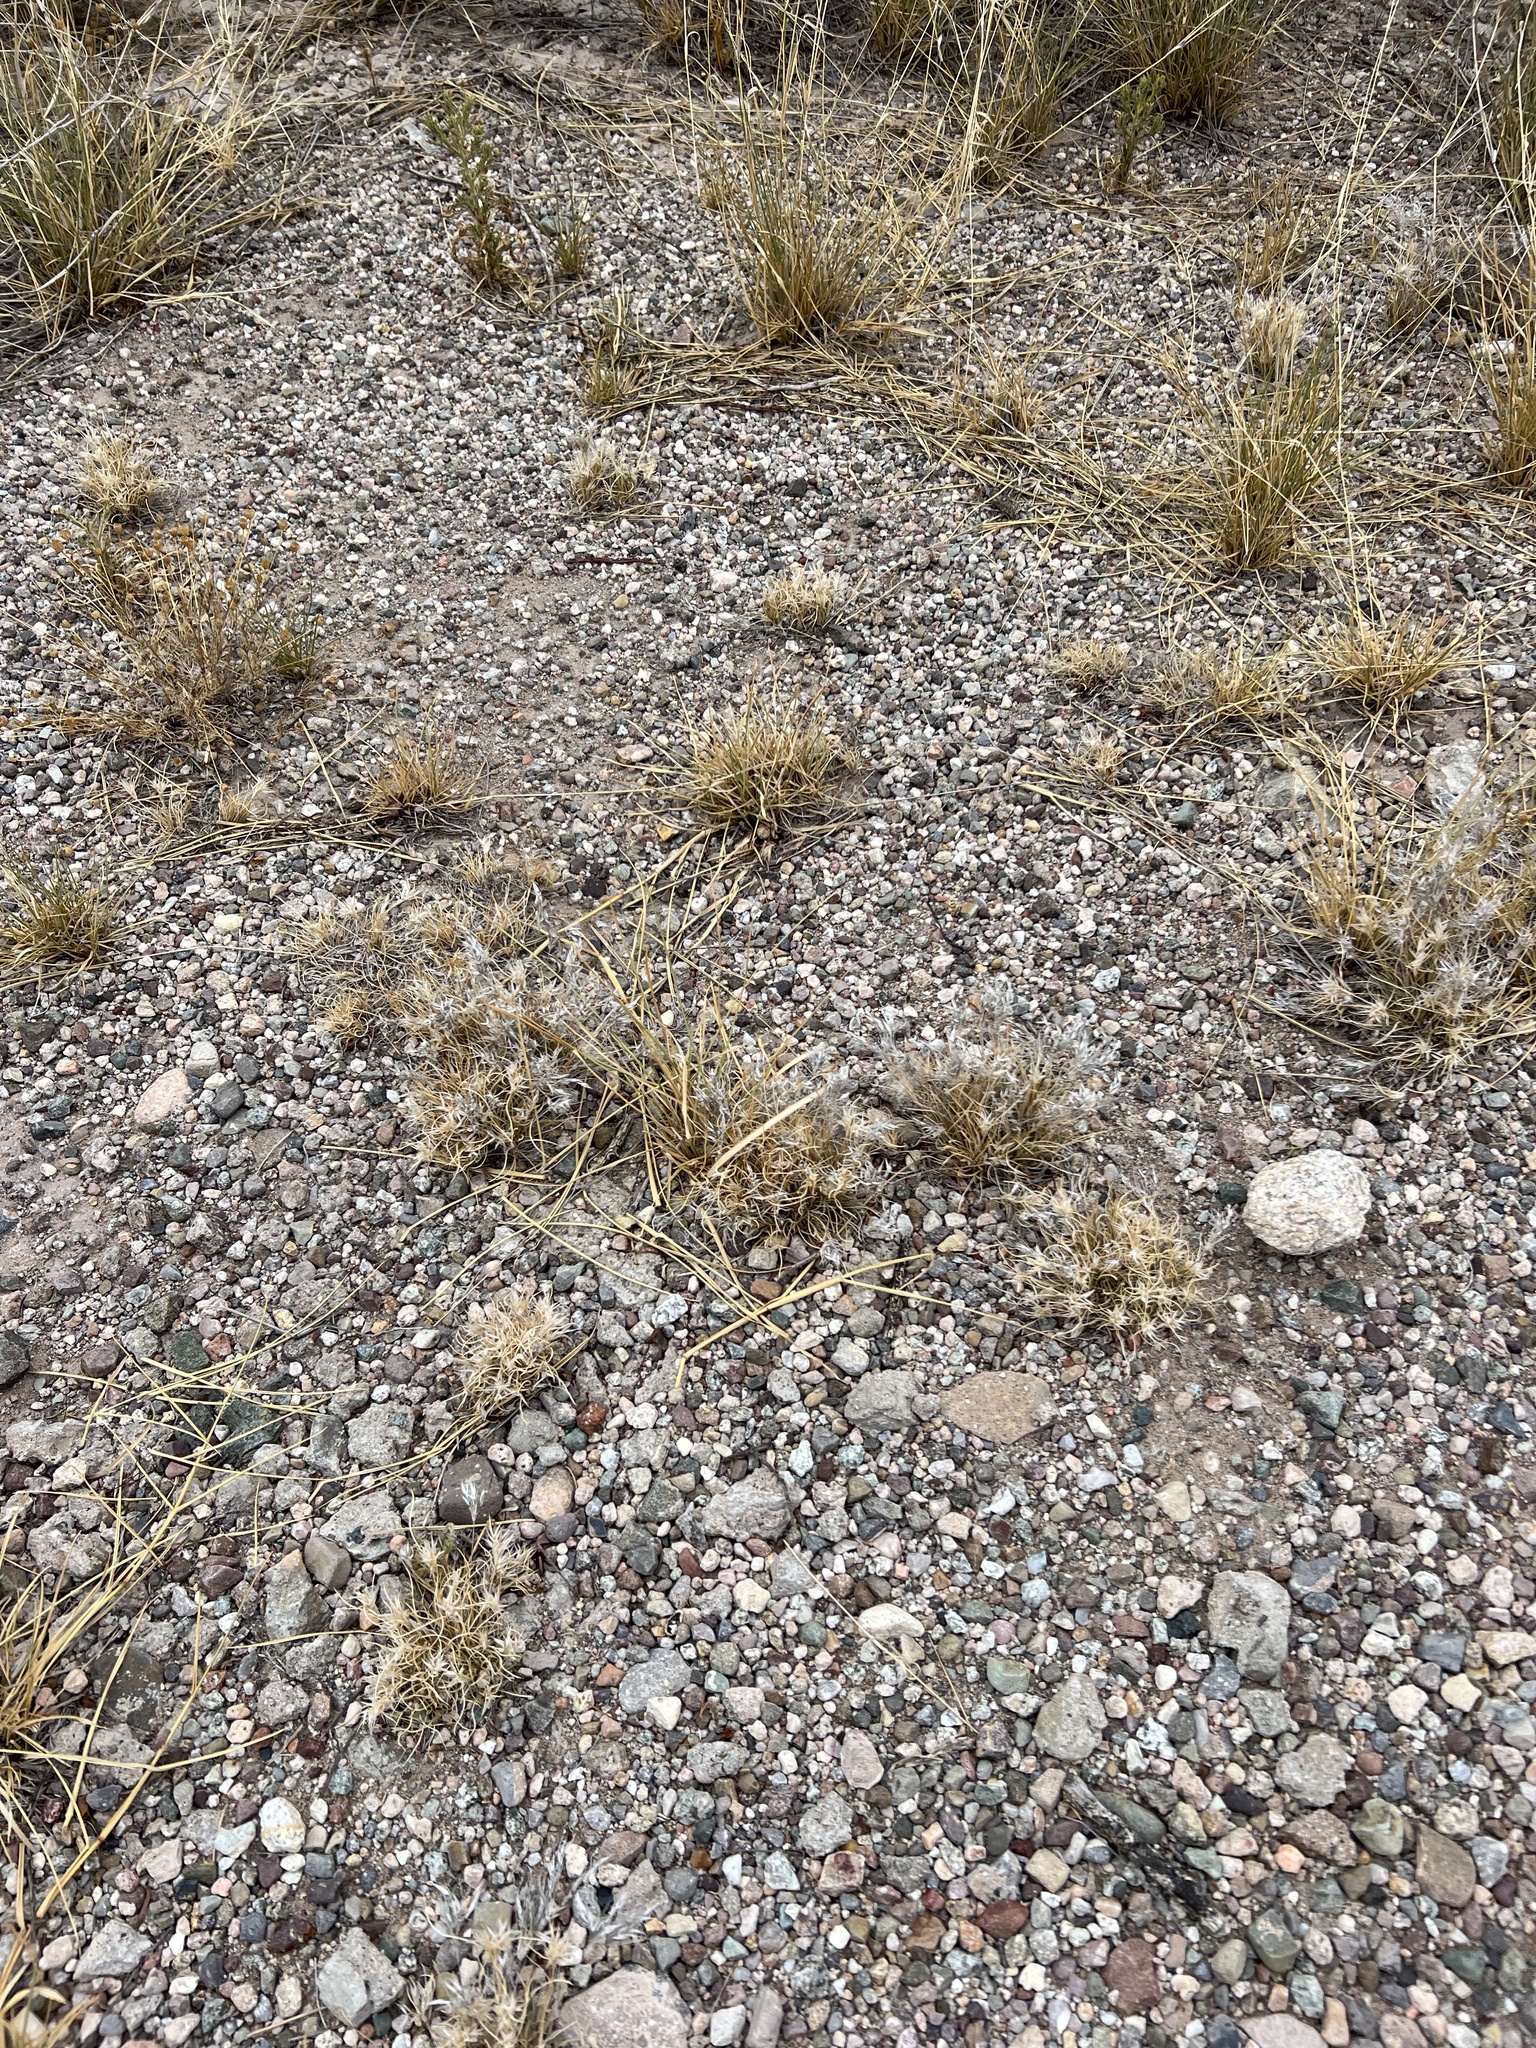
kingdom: Plantae
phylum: Tracheophyta
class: Liliopsida
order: Poales
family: Poaceae
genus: Dasyochloa
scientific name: Dasyochloa pulchella
